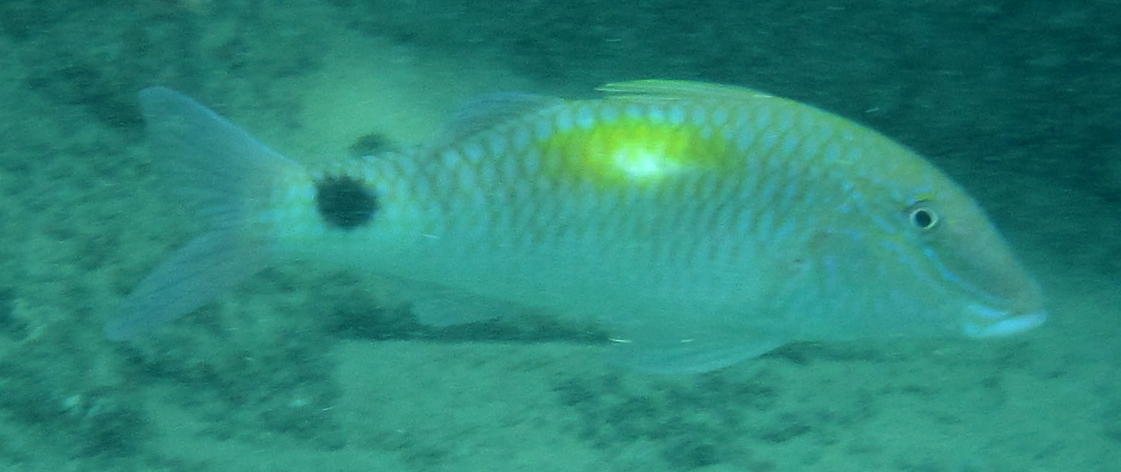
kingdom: Animalia
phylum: Chordata
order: Perciformes
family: Mullidae
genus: Parupeneus
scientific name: Parupeneus indicus
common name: Indian goatfish
